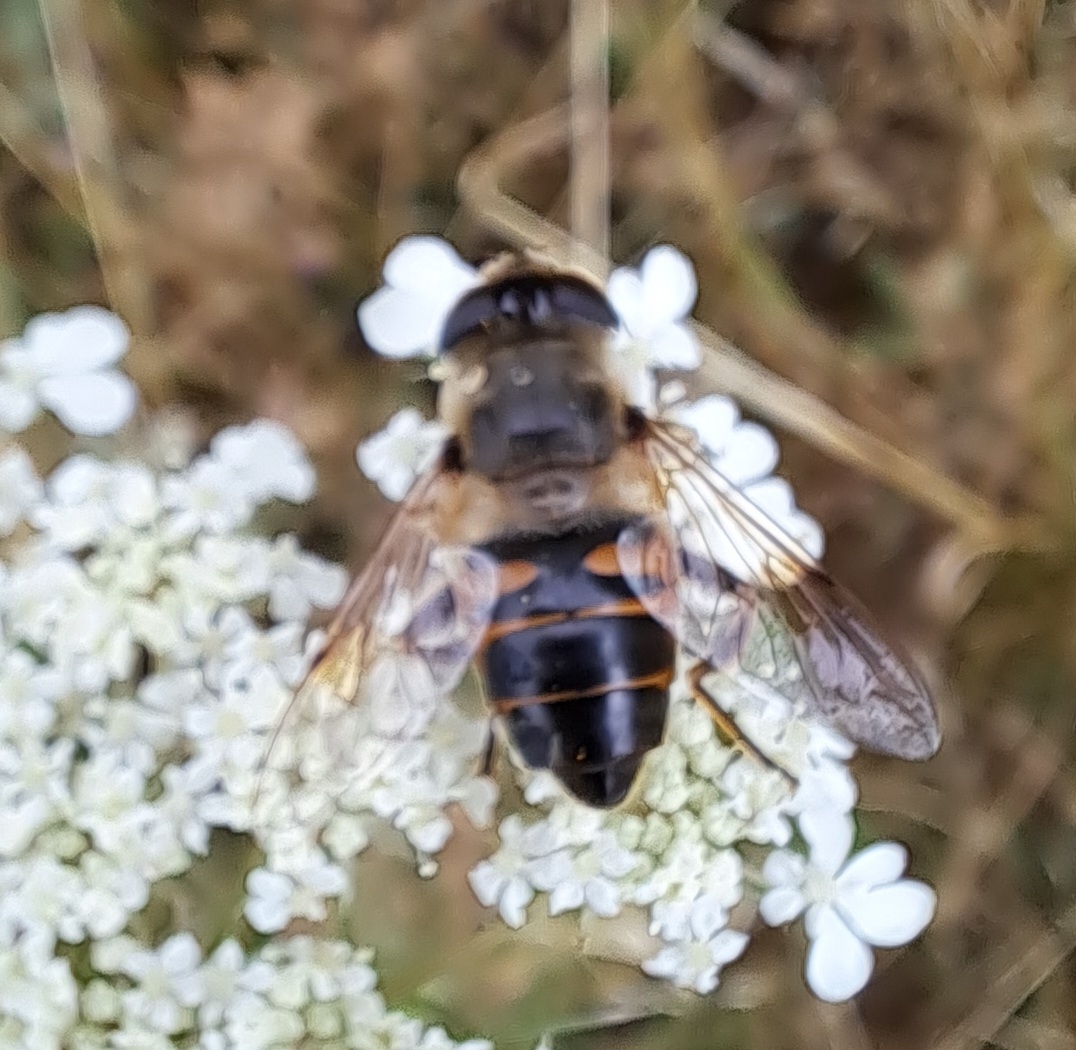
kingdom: Animalia
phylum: Arthropoda
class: Insecta
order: Diptera
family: Syrphidae
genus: Eristalis
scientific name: Eristalis tenax
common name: Drone fly
